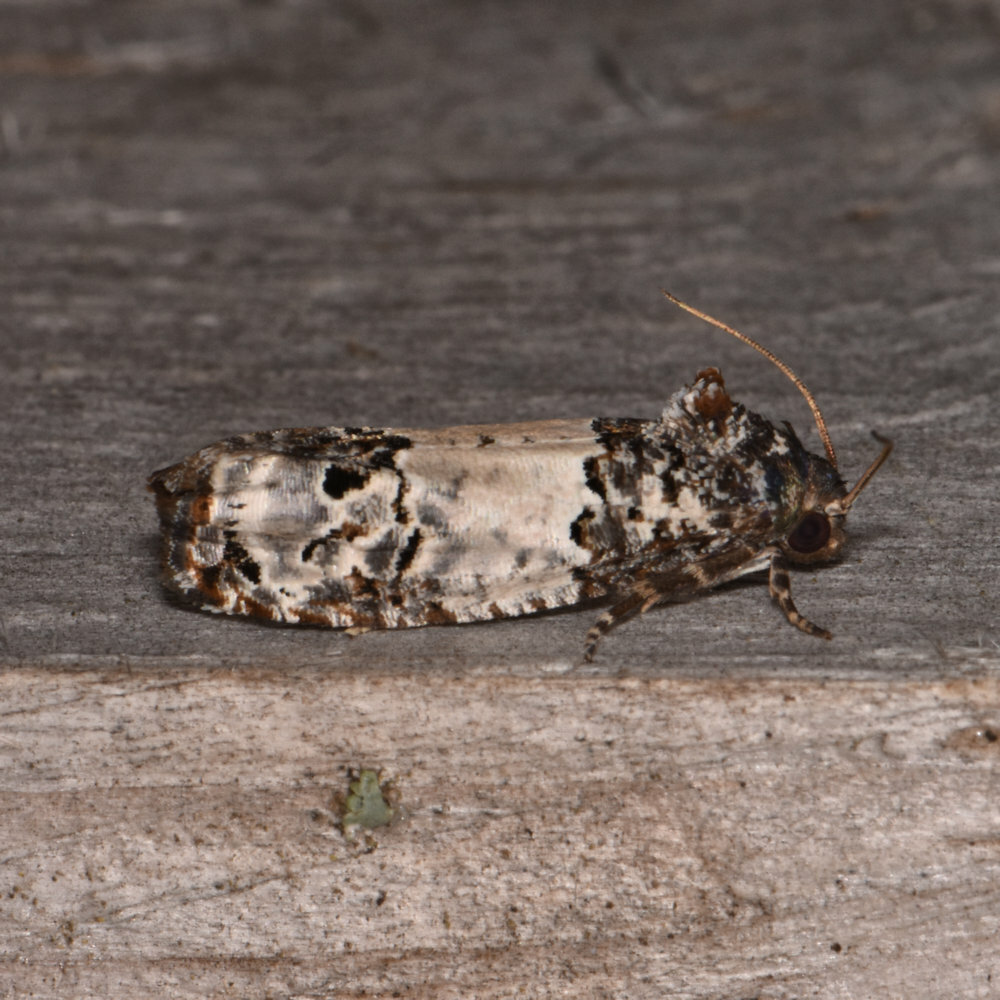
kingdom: Animalia
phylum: Arthropoda
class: Insecta
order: Lepidoptera
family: Tortricidae
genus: Epiblema
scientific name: Epiblema carolinana
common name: Gray-blotched epiblema moth
